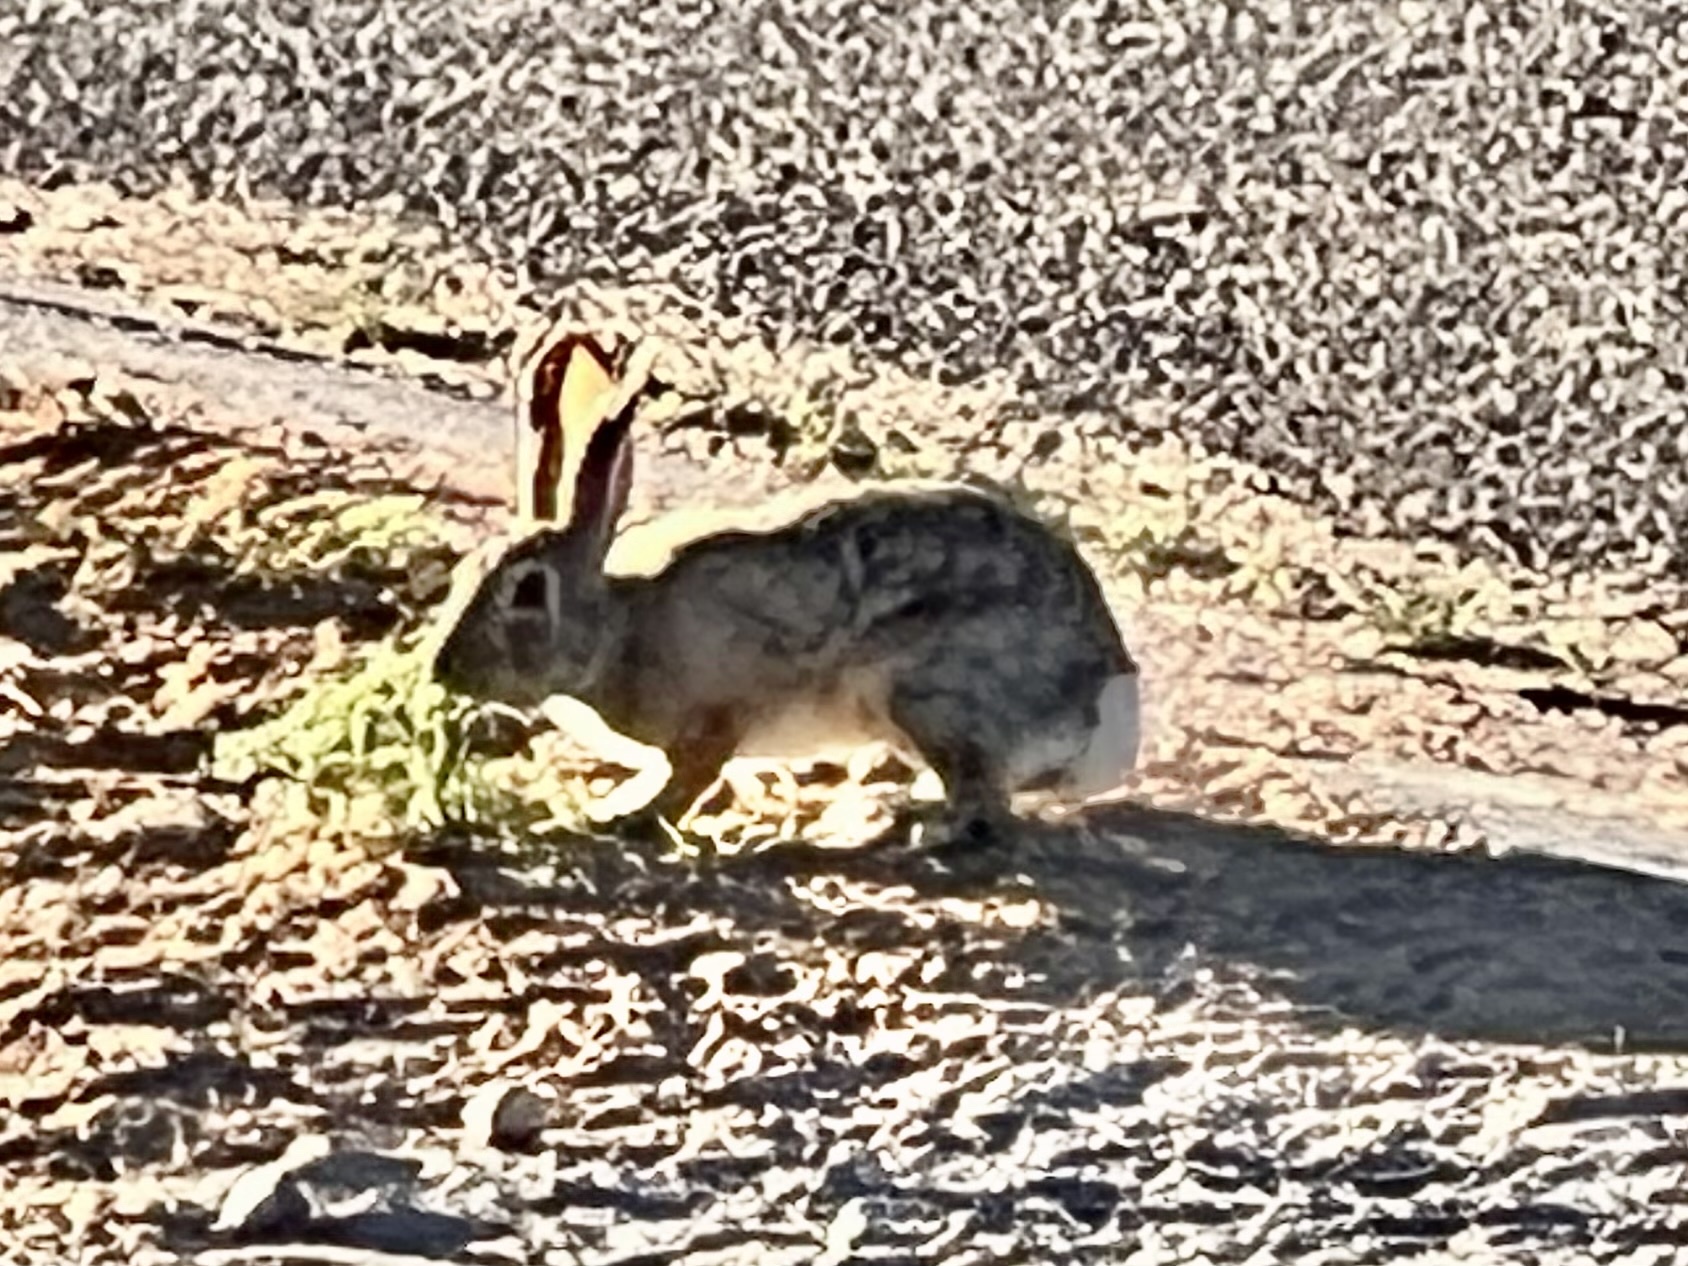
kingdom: Animalia
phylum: Chordata
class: Mammalia
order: Lagomorpha
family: Leporidae
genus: Sylvilagus
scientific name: Sylvilagus audubonii
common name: Desert cottontail
